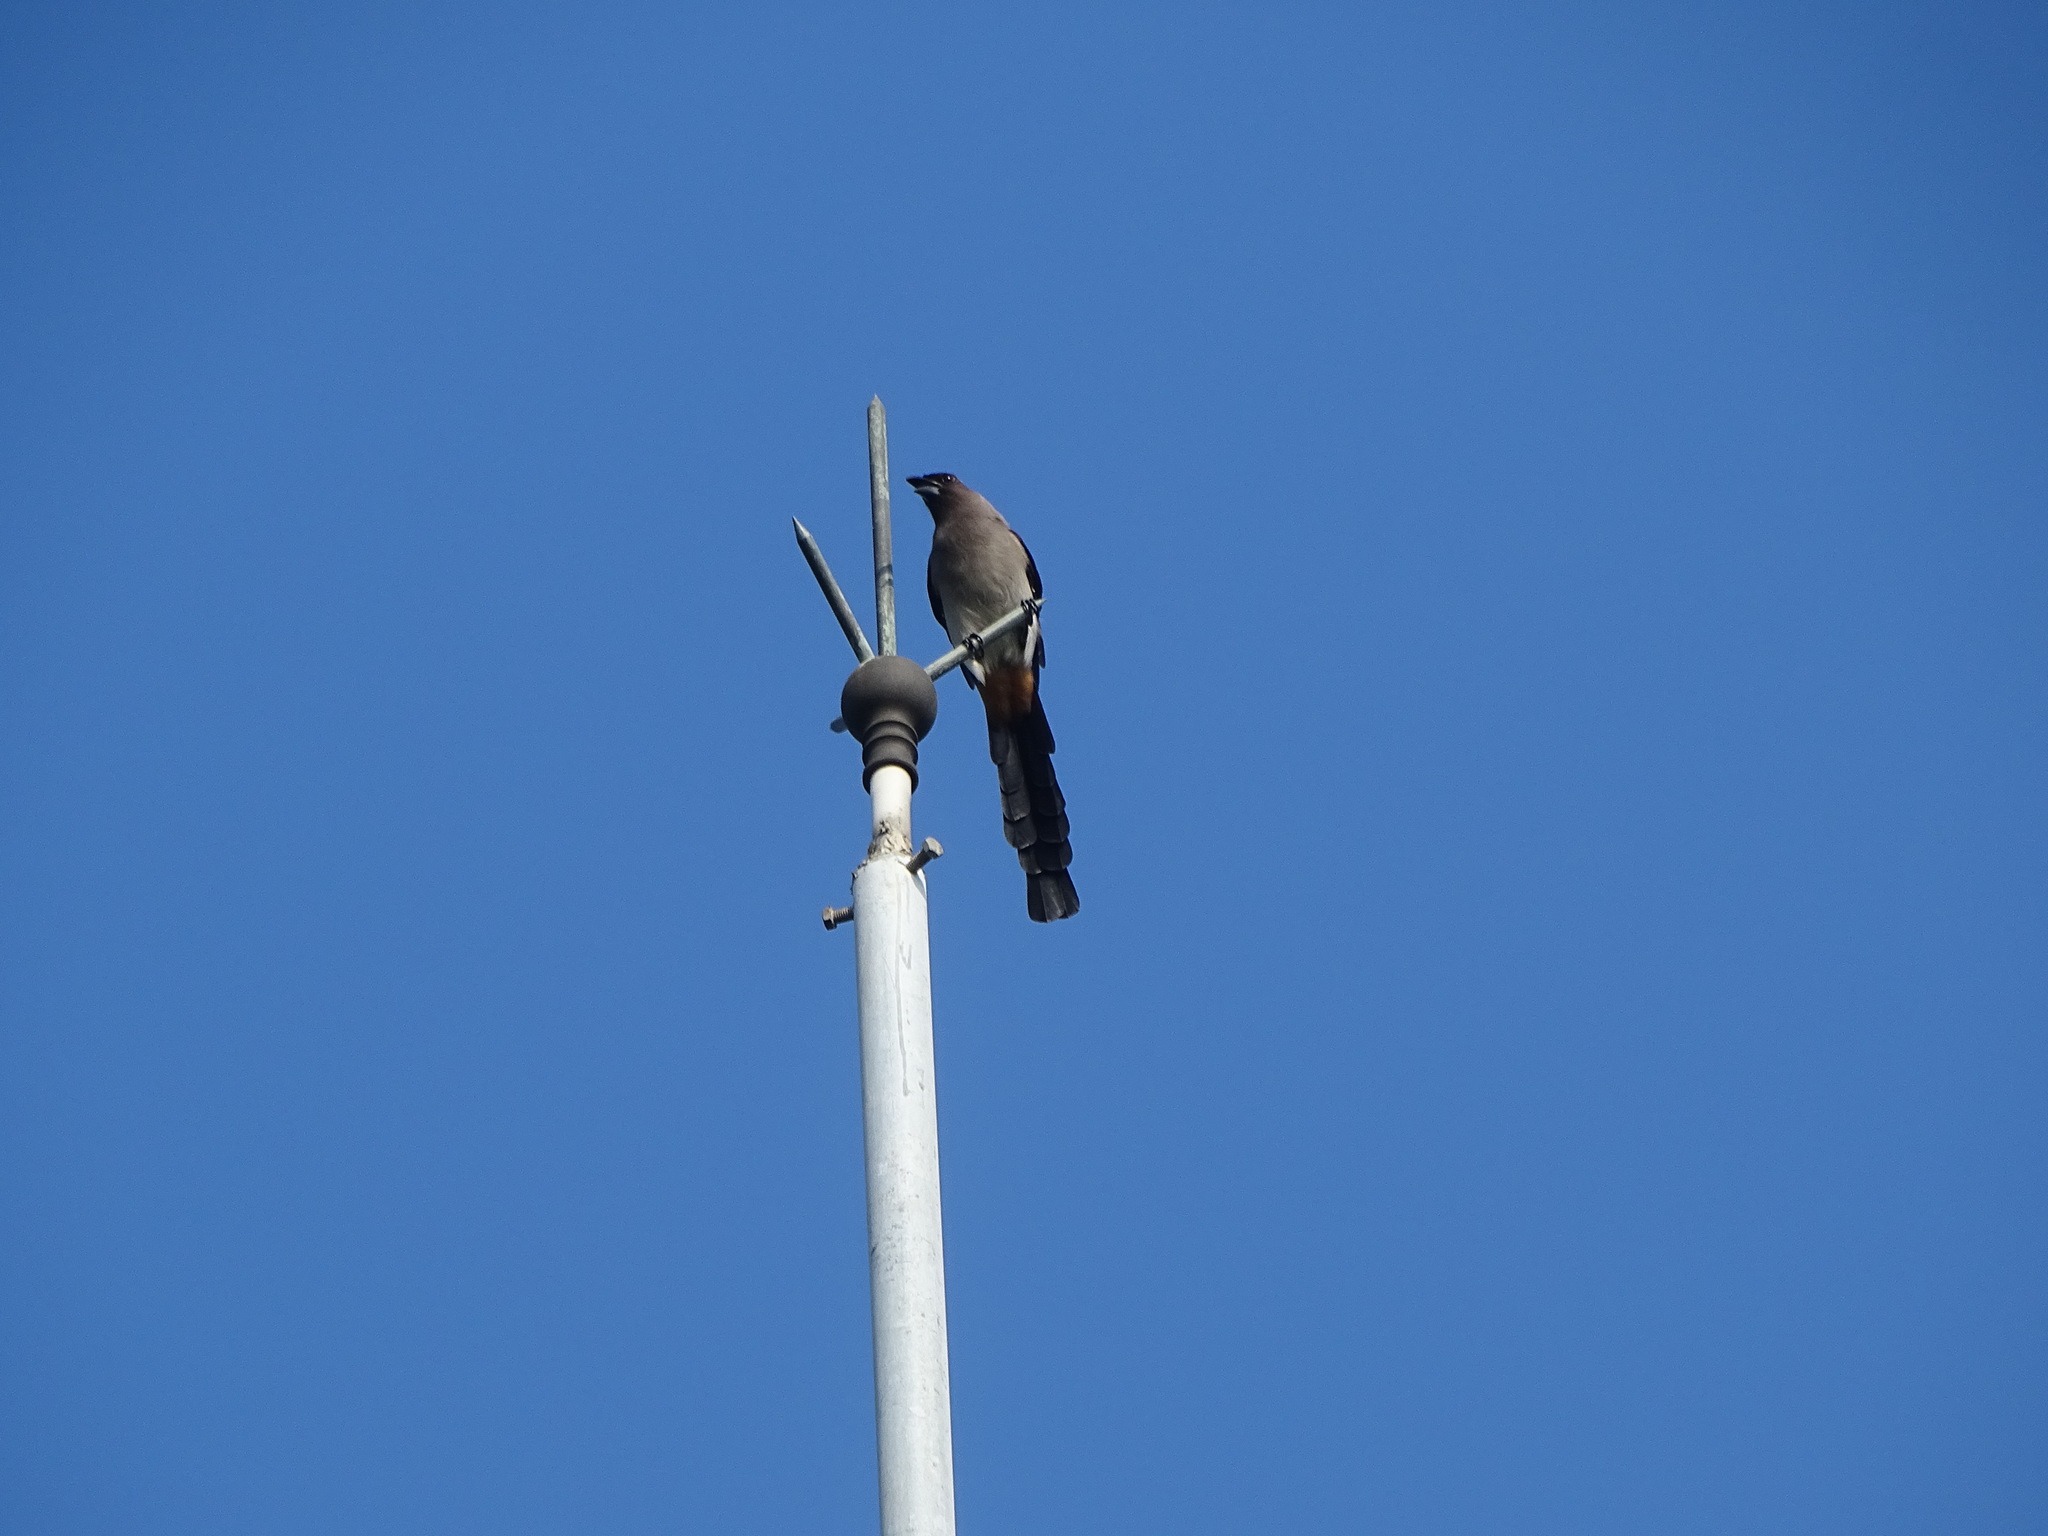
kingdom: Animalia
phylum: Chordata
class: Aves
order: Passeriformes
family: Corvidae
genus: Dendrocitta
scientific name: Dendrocitta formosae
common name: Grey treepie
